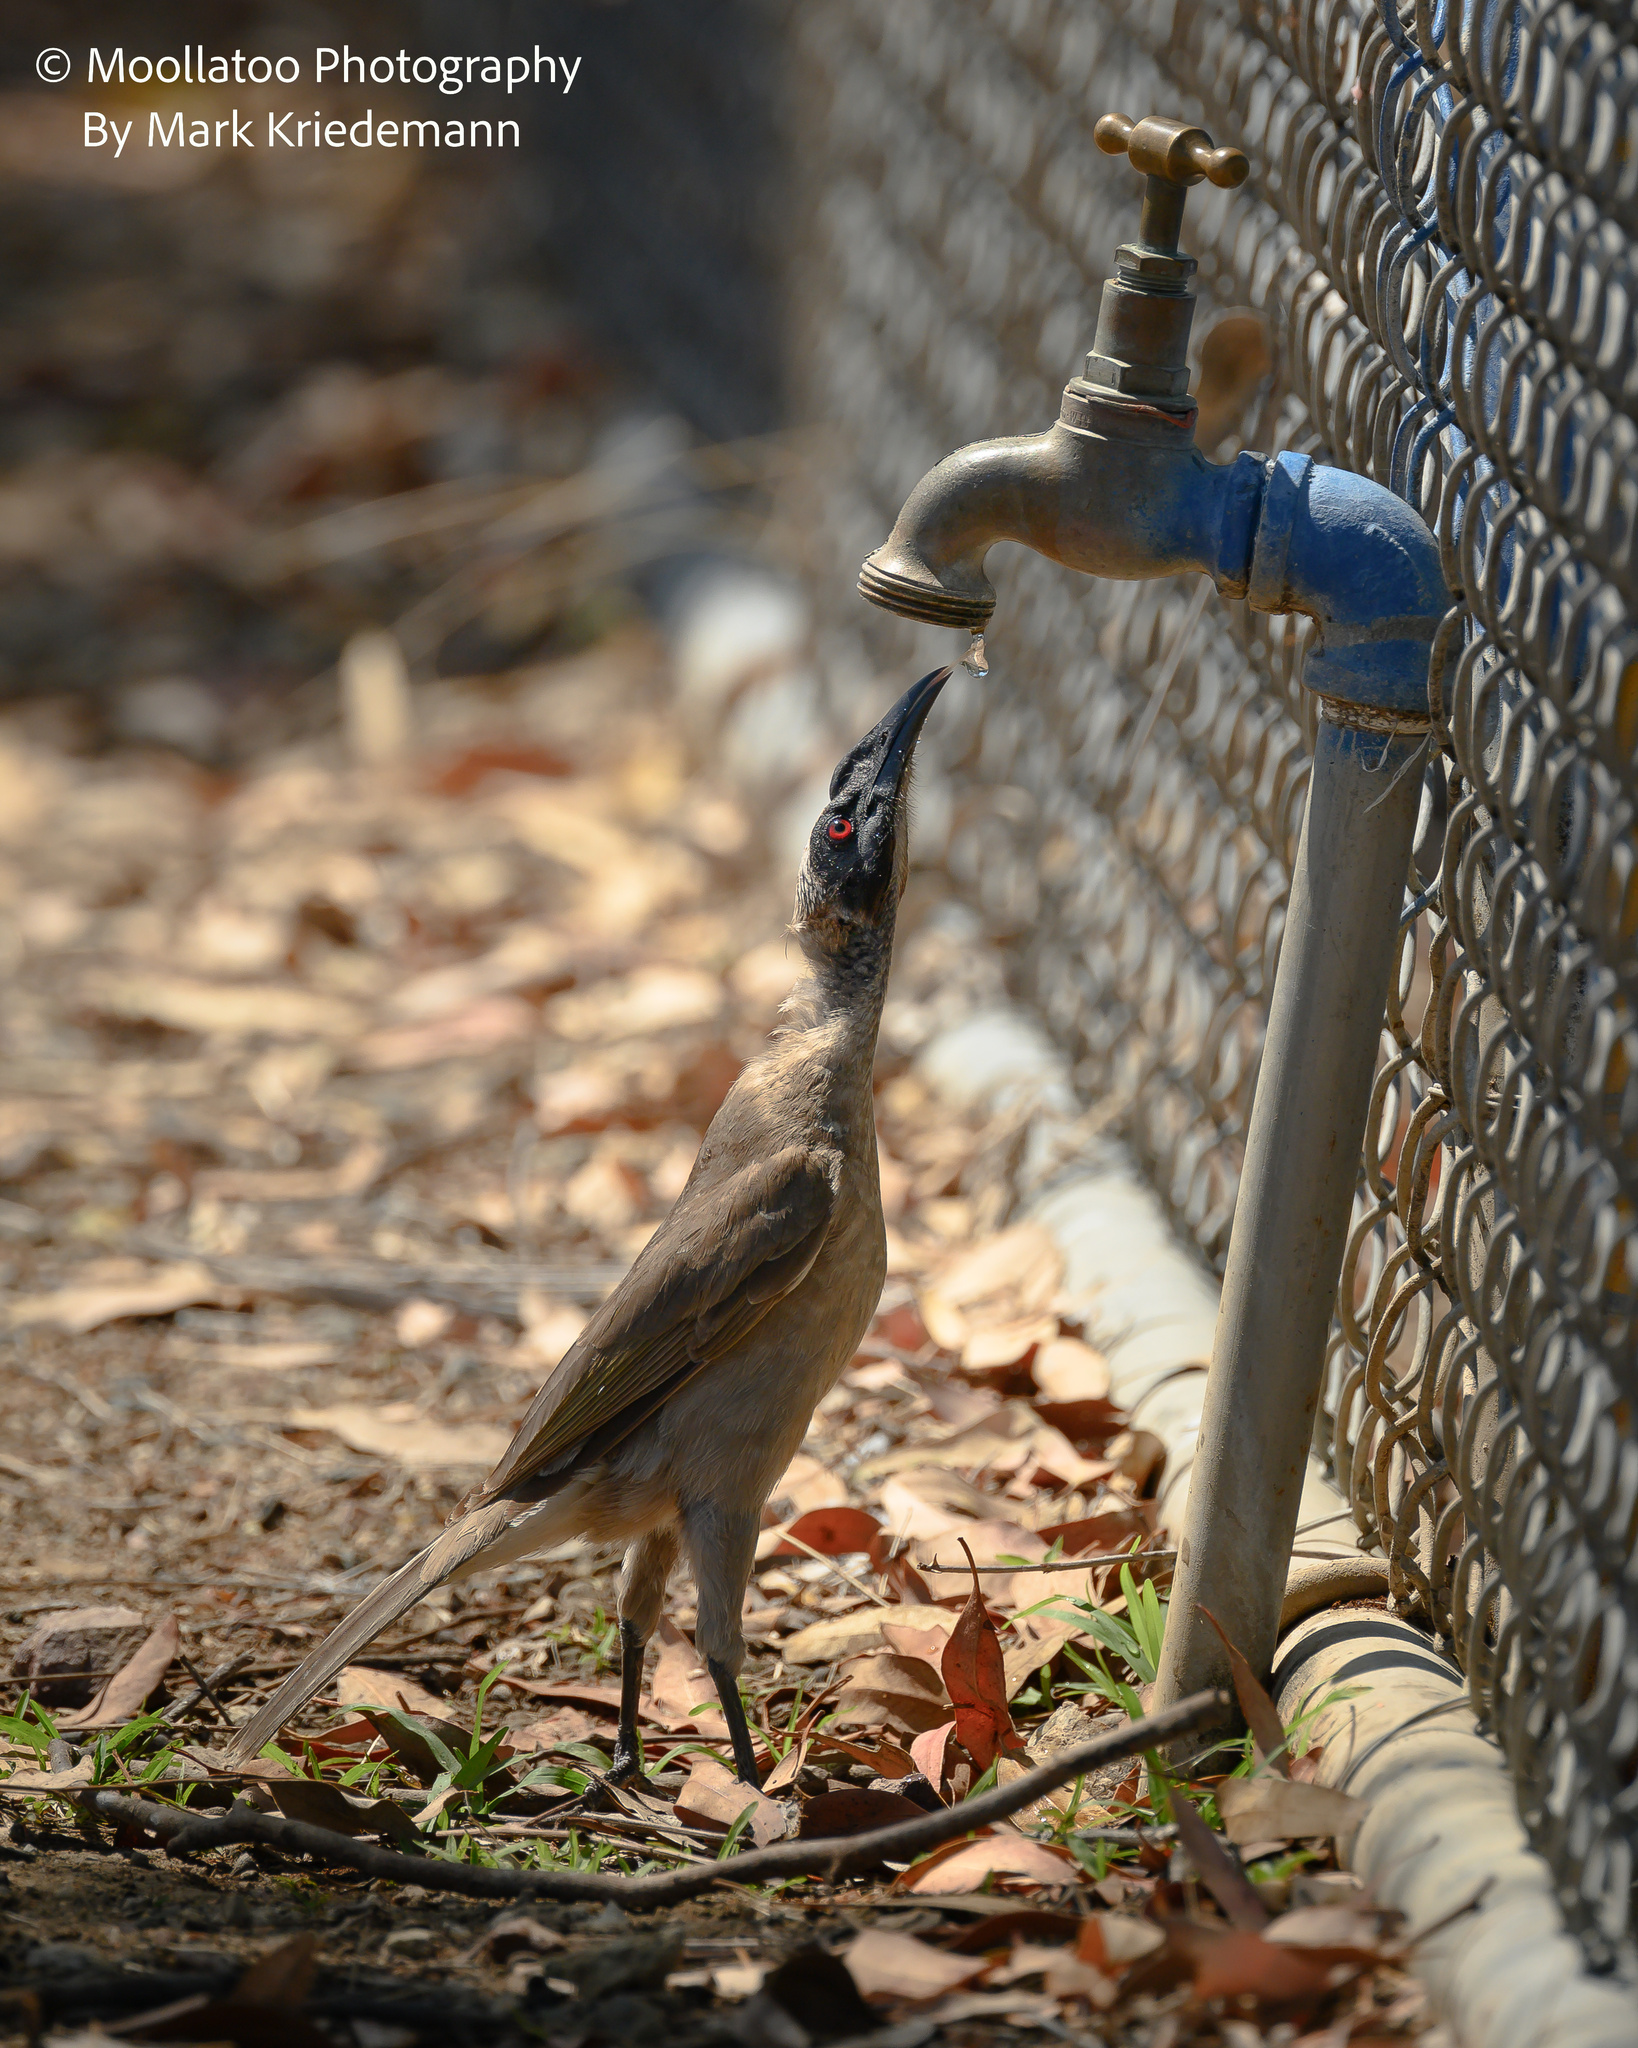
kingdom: Animalia
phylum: Chordata
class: Aves
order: Passeriformes
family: Meliphagidae
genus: Philemon
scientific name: Philemon buceroides
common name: Helmeted friarbird
